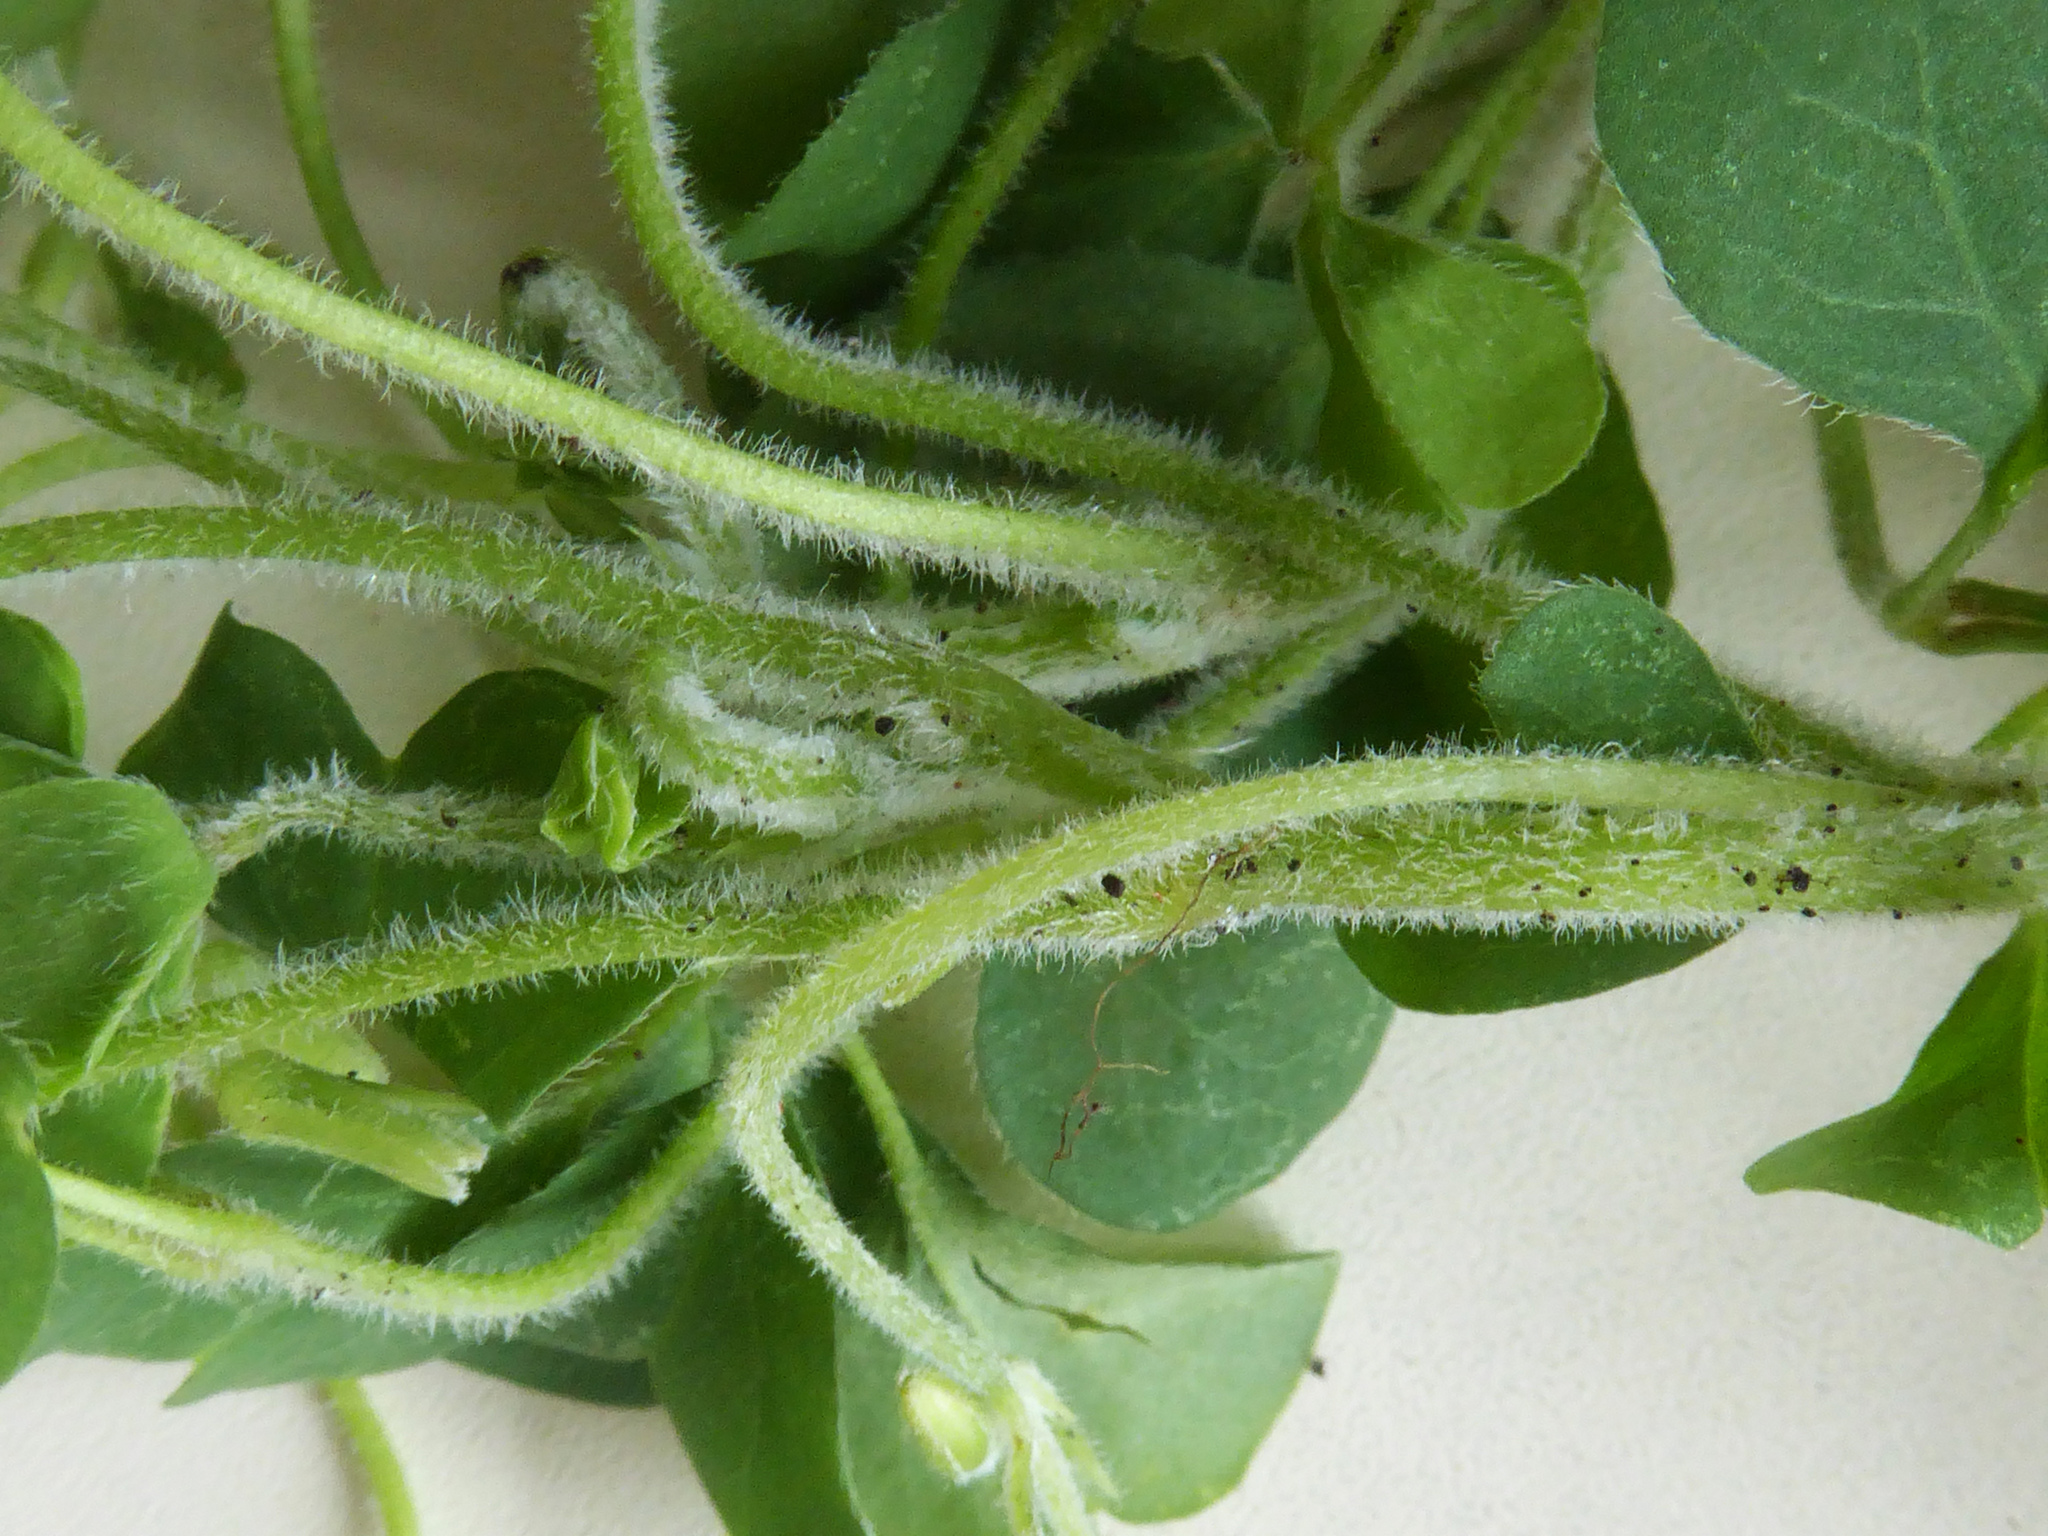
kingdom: Plantae
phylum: Tracheophyta
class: Magnoliopsida
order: Oxalidales
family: Oxalidaceae
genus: Oxalis
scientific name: Oxalis chnoodes
